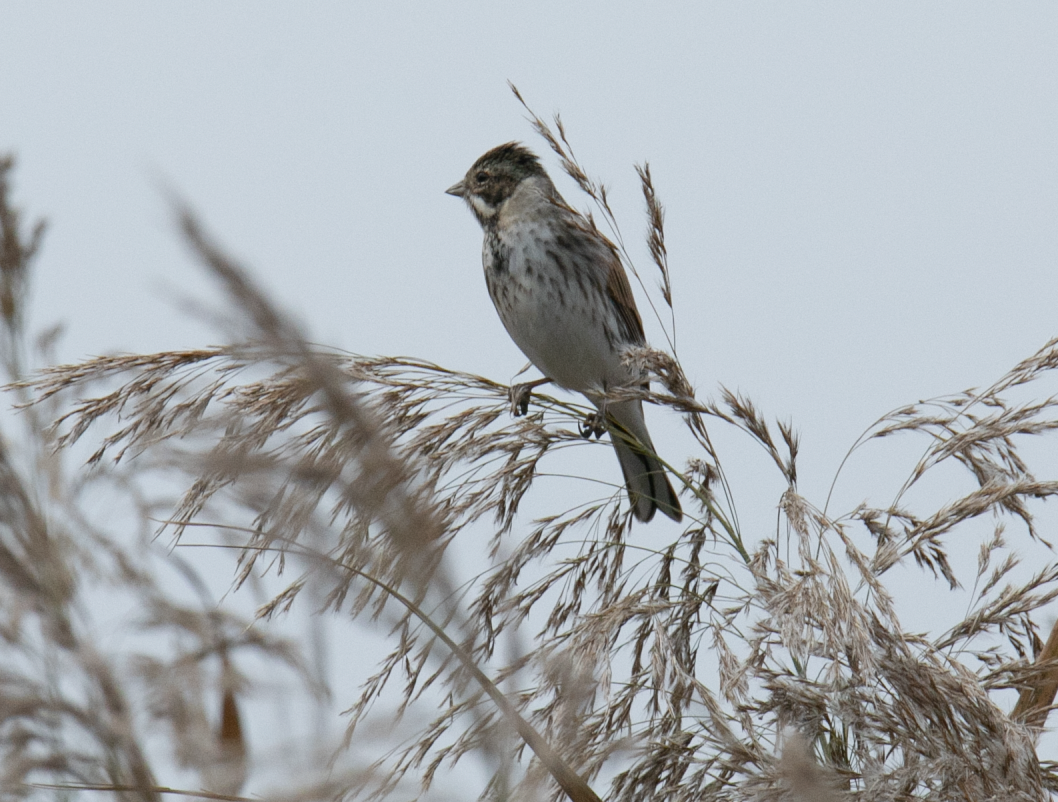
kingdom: Animalia
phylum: Chordata
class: Aves
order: Passeriformes
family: Emberizidae
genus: Emberiza
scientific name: Emberiza schoeniclus
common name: Reed bunting
